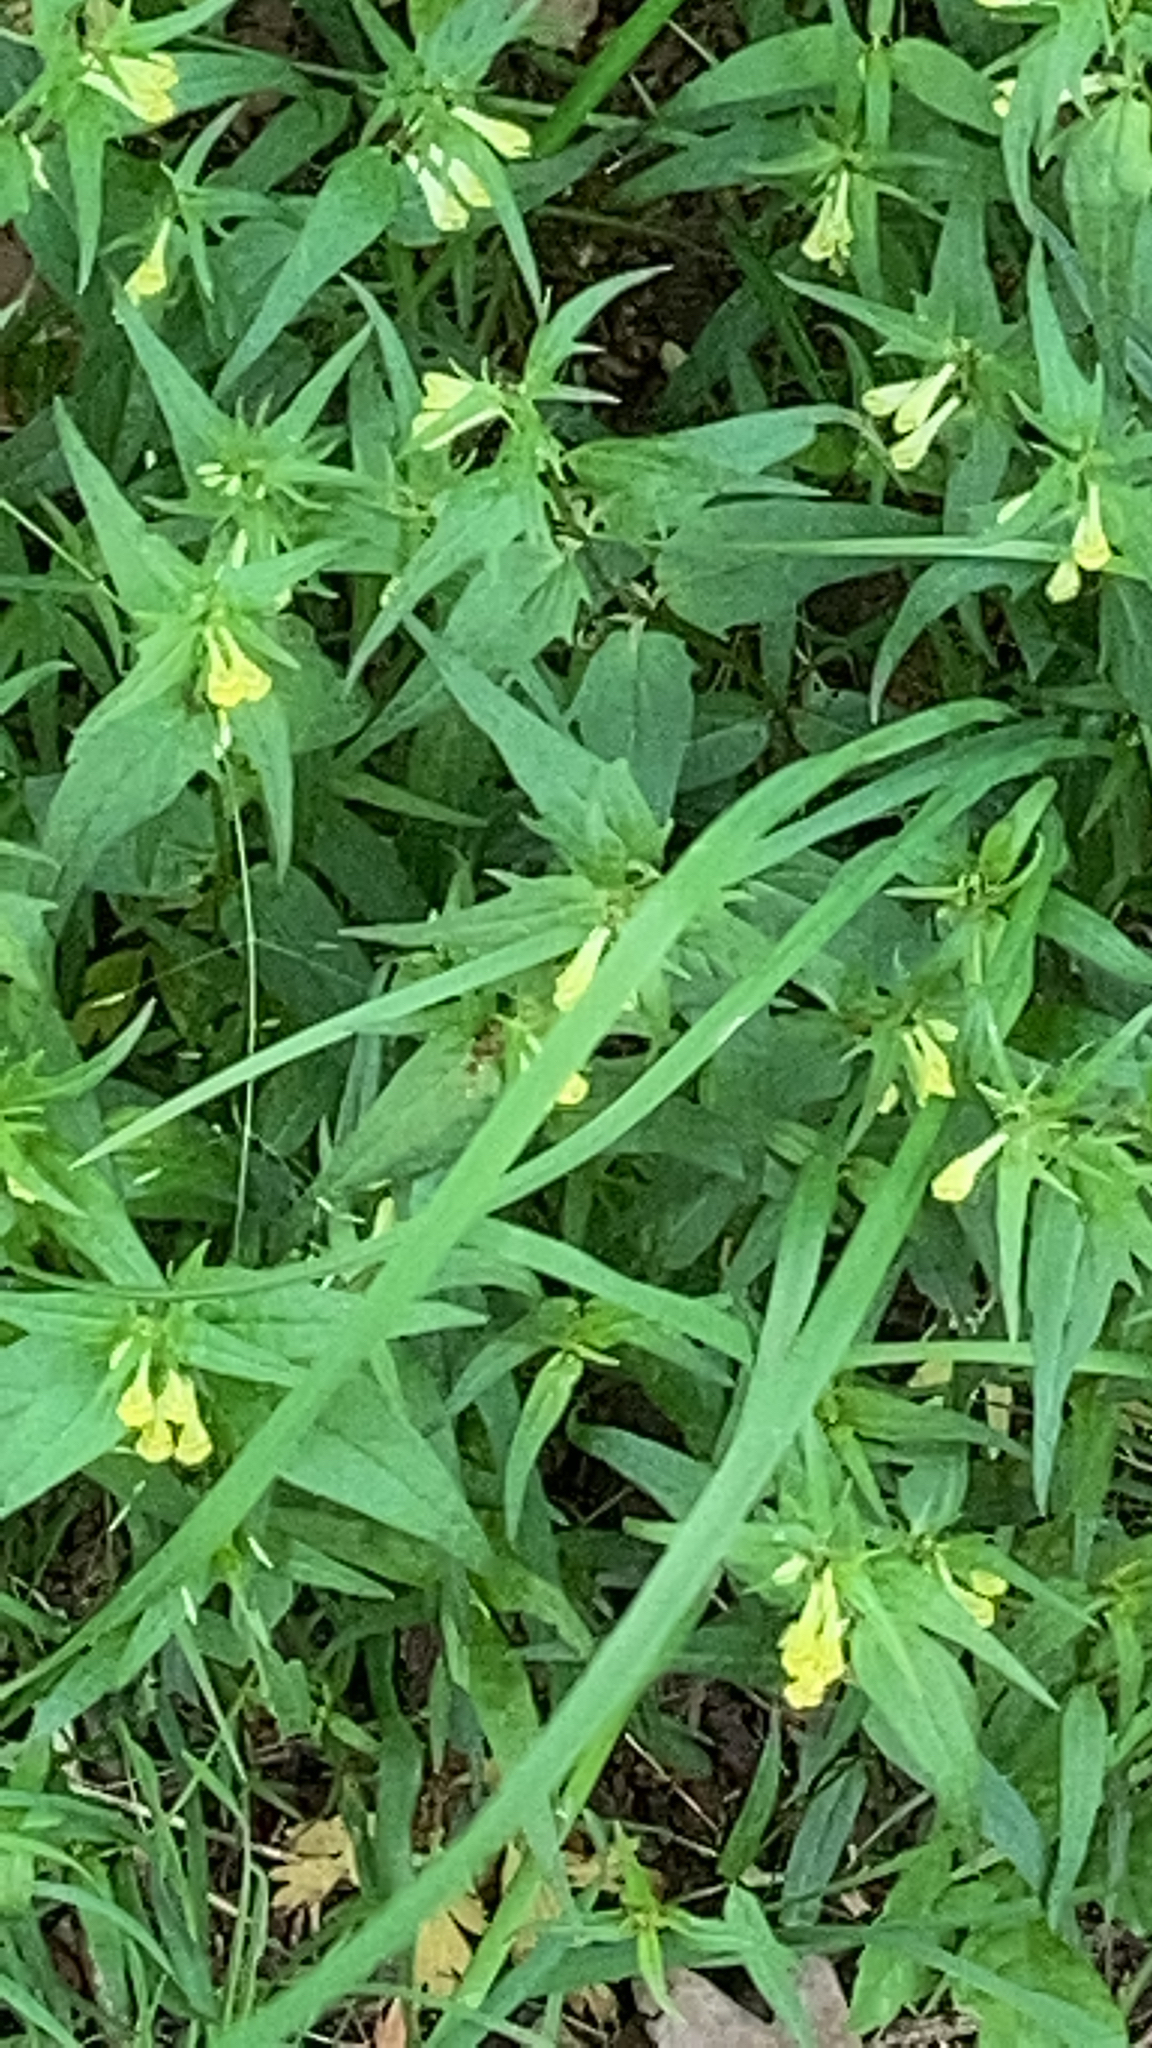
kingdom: Plantae
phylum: Tracheophyta
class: Magnoliopsida
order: Lamiales
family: Orobanchaceae
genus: Melampyrum
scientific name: Melampyrum pratense
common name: Common cow-wheat
